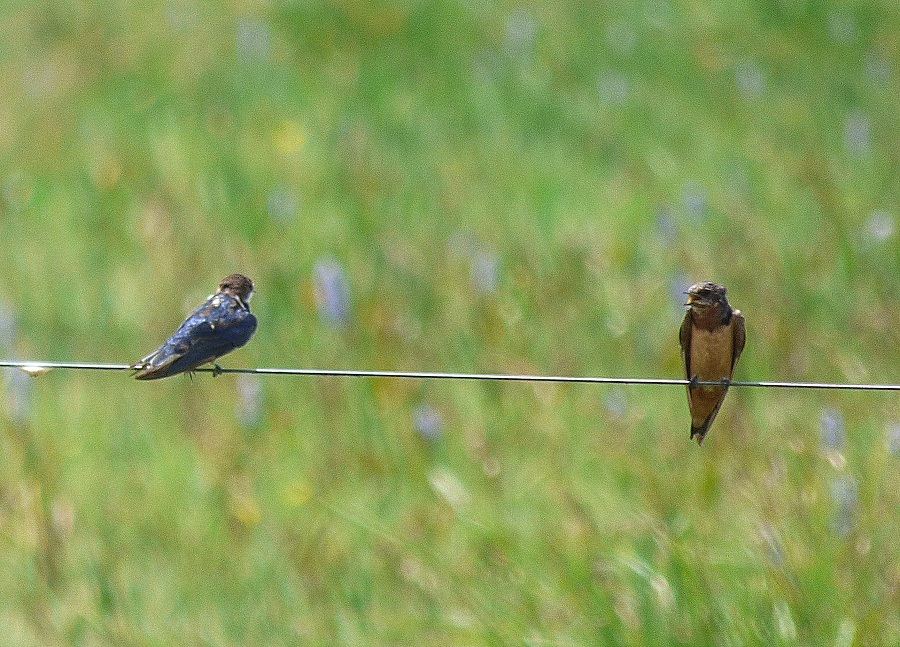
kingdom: Animalia
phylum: Chordata
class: Aves
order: Passeriformes
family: Hirundinidae
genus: Hirundo
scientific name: Hirundo rustica
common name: Barn swallow
